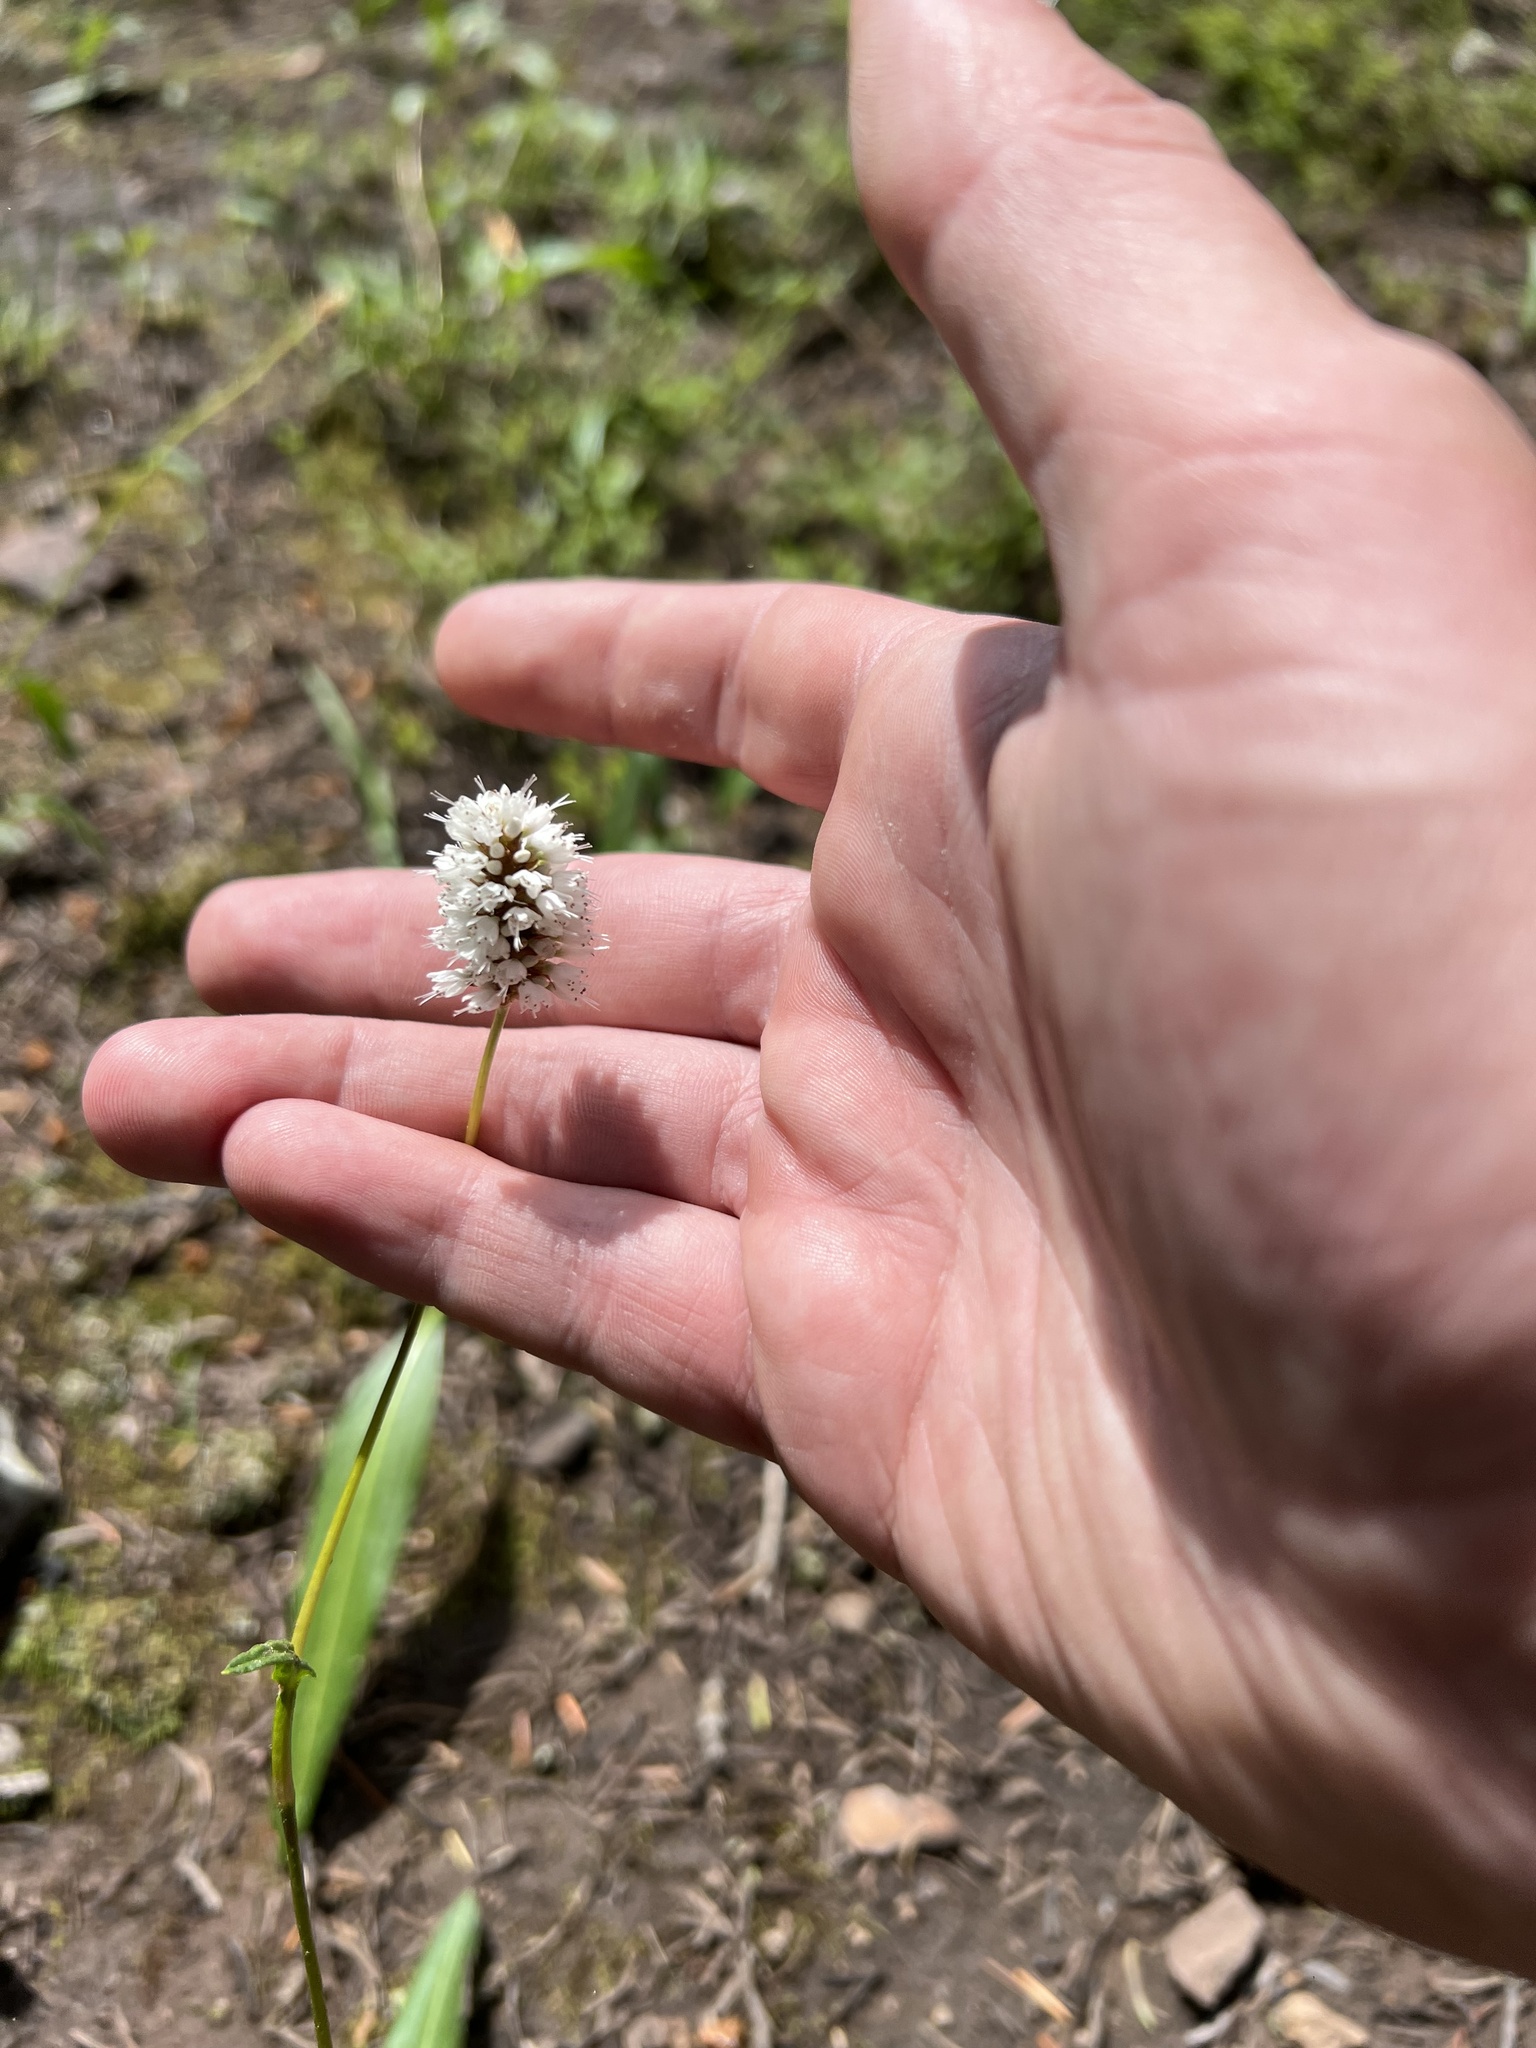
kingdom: Plantae
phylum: Tracheophyta
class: Magnoliopsida
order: Caryophyllales
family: Polygonaceae
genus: Bistorta
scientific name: Bistorta bistortoides
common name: American bistort
